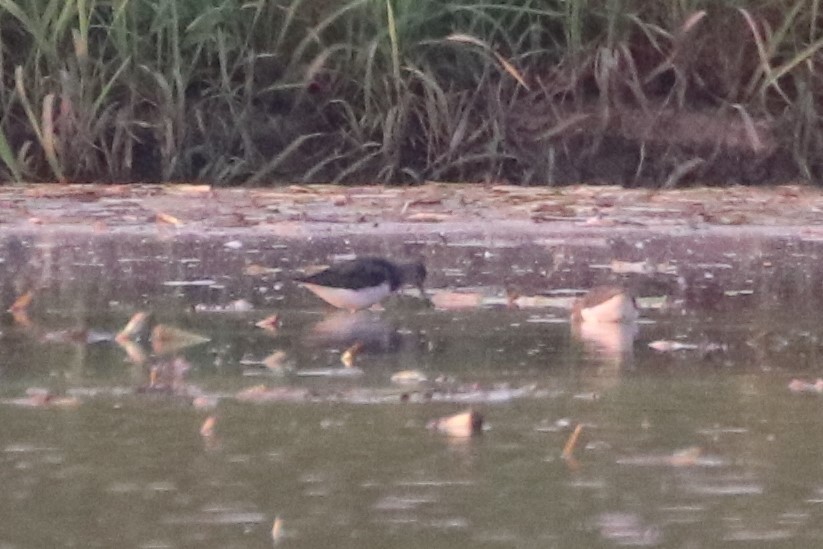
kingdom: Animalia
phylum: Chordata
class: Aves
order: Charadriiformes
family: Scolopacidae
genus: Tringa
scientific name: Tringa ochropus
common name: Green sandpiper
